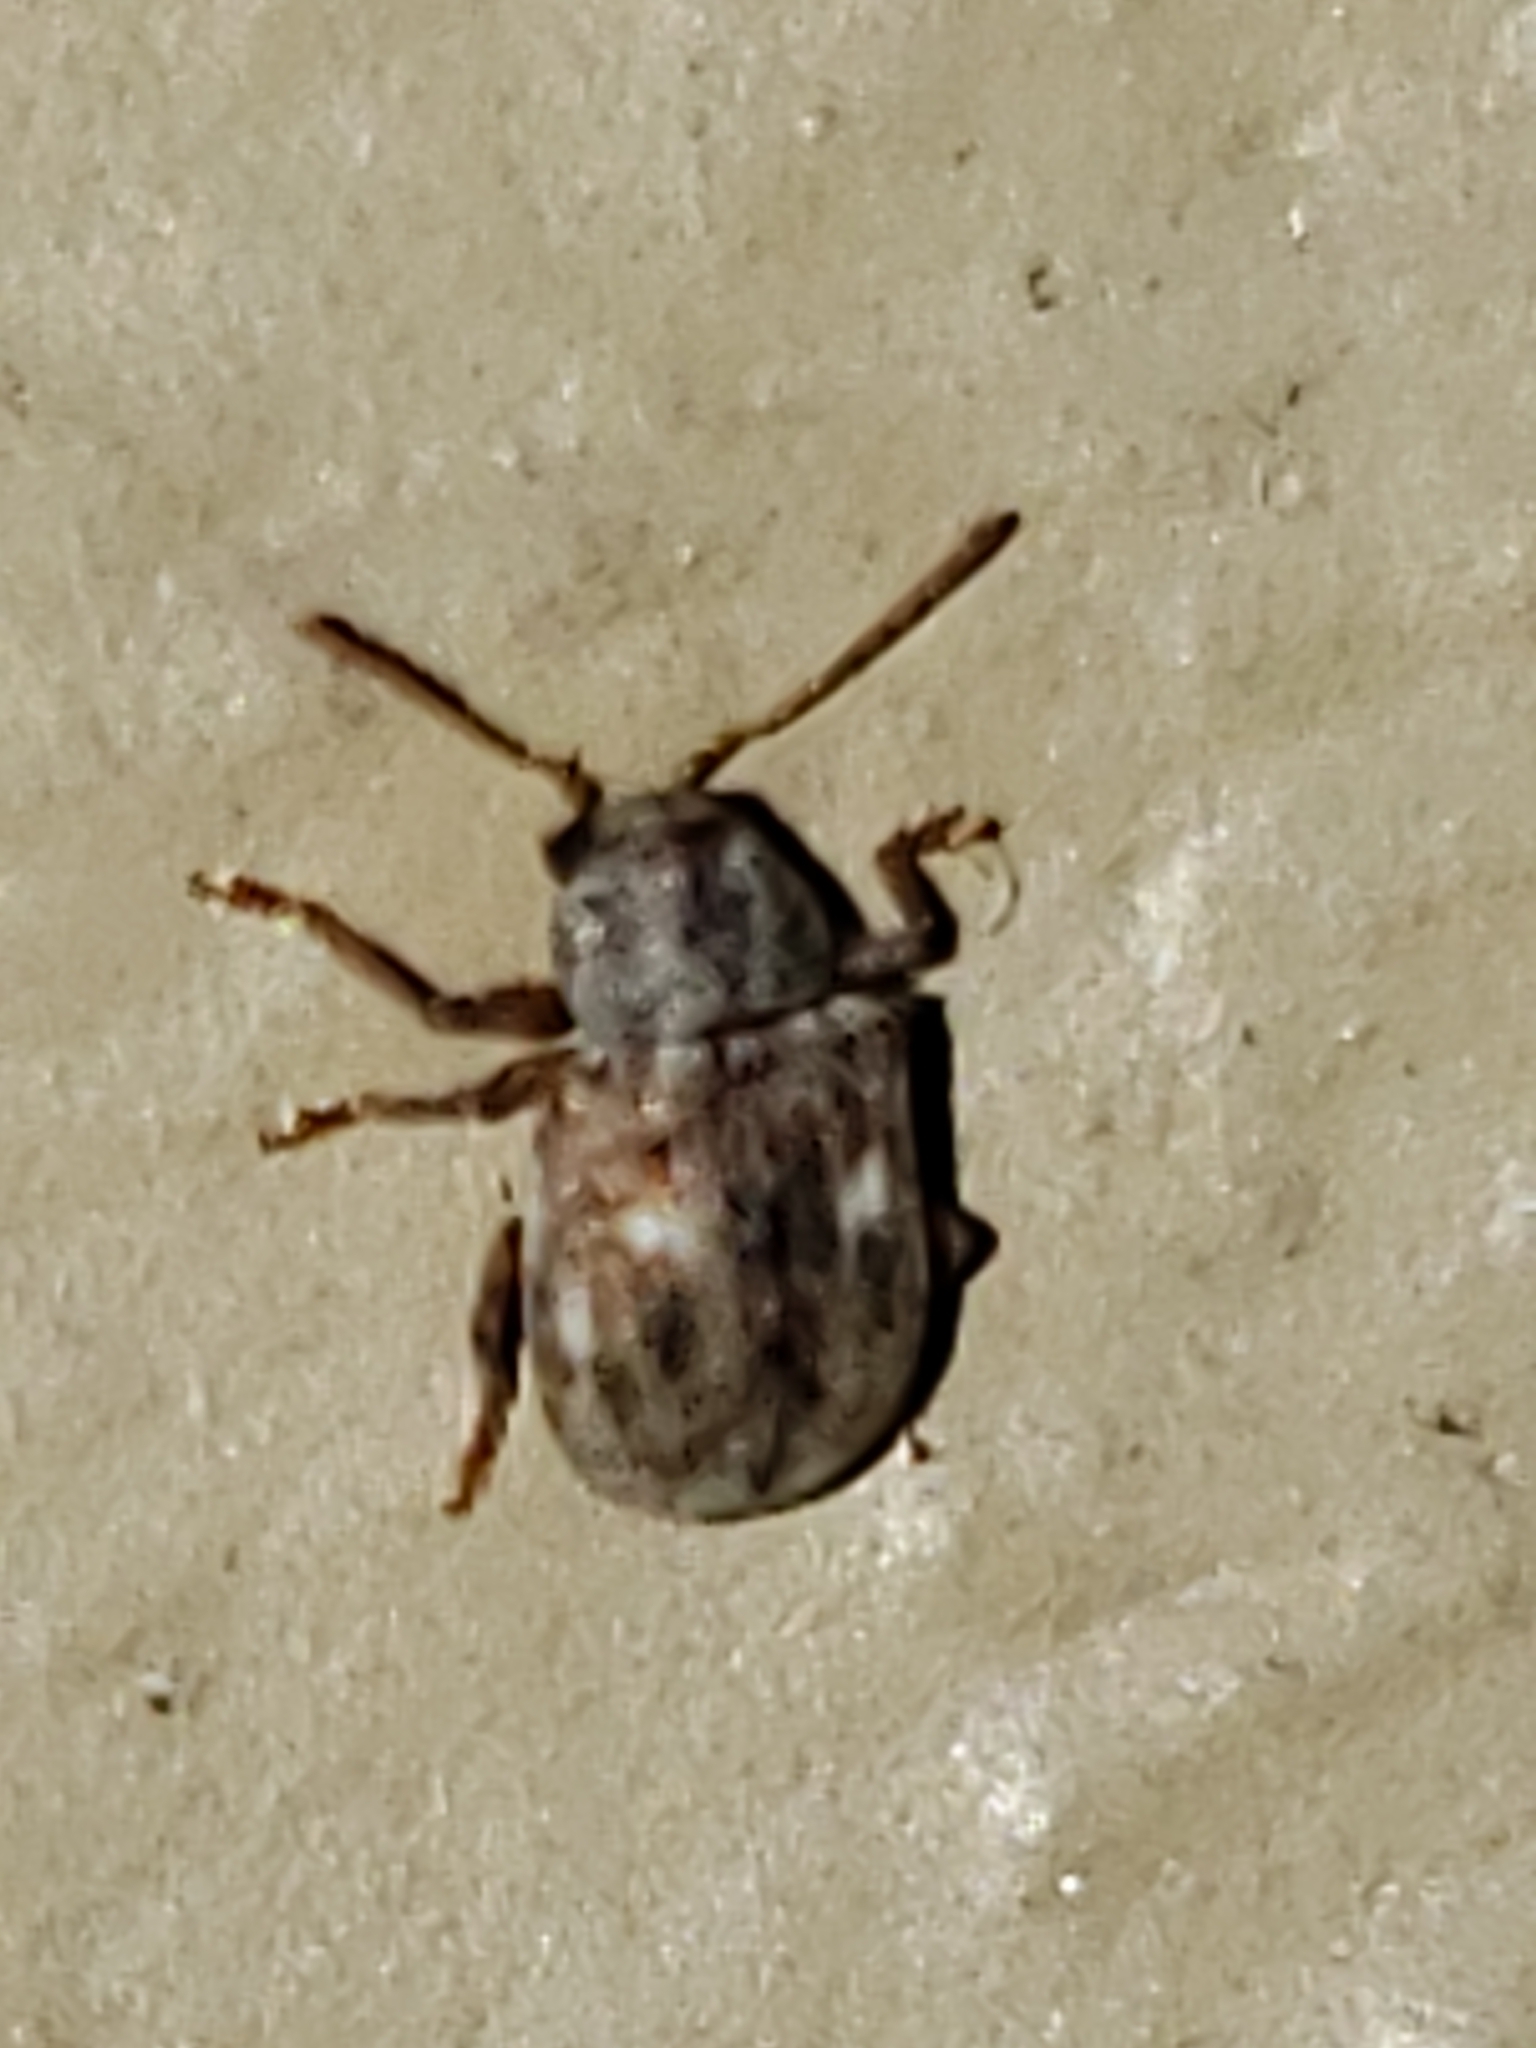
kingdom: Animalia
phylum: Arthropoda
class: Insecta
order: Coleoptera
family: Chrysomelidae
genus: Demotina
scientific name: Demotina modesta
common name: Leaf beetle
